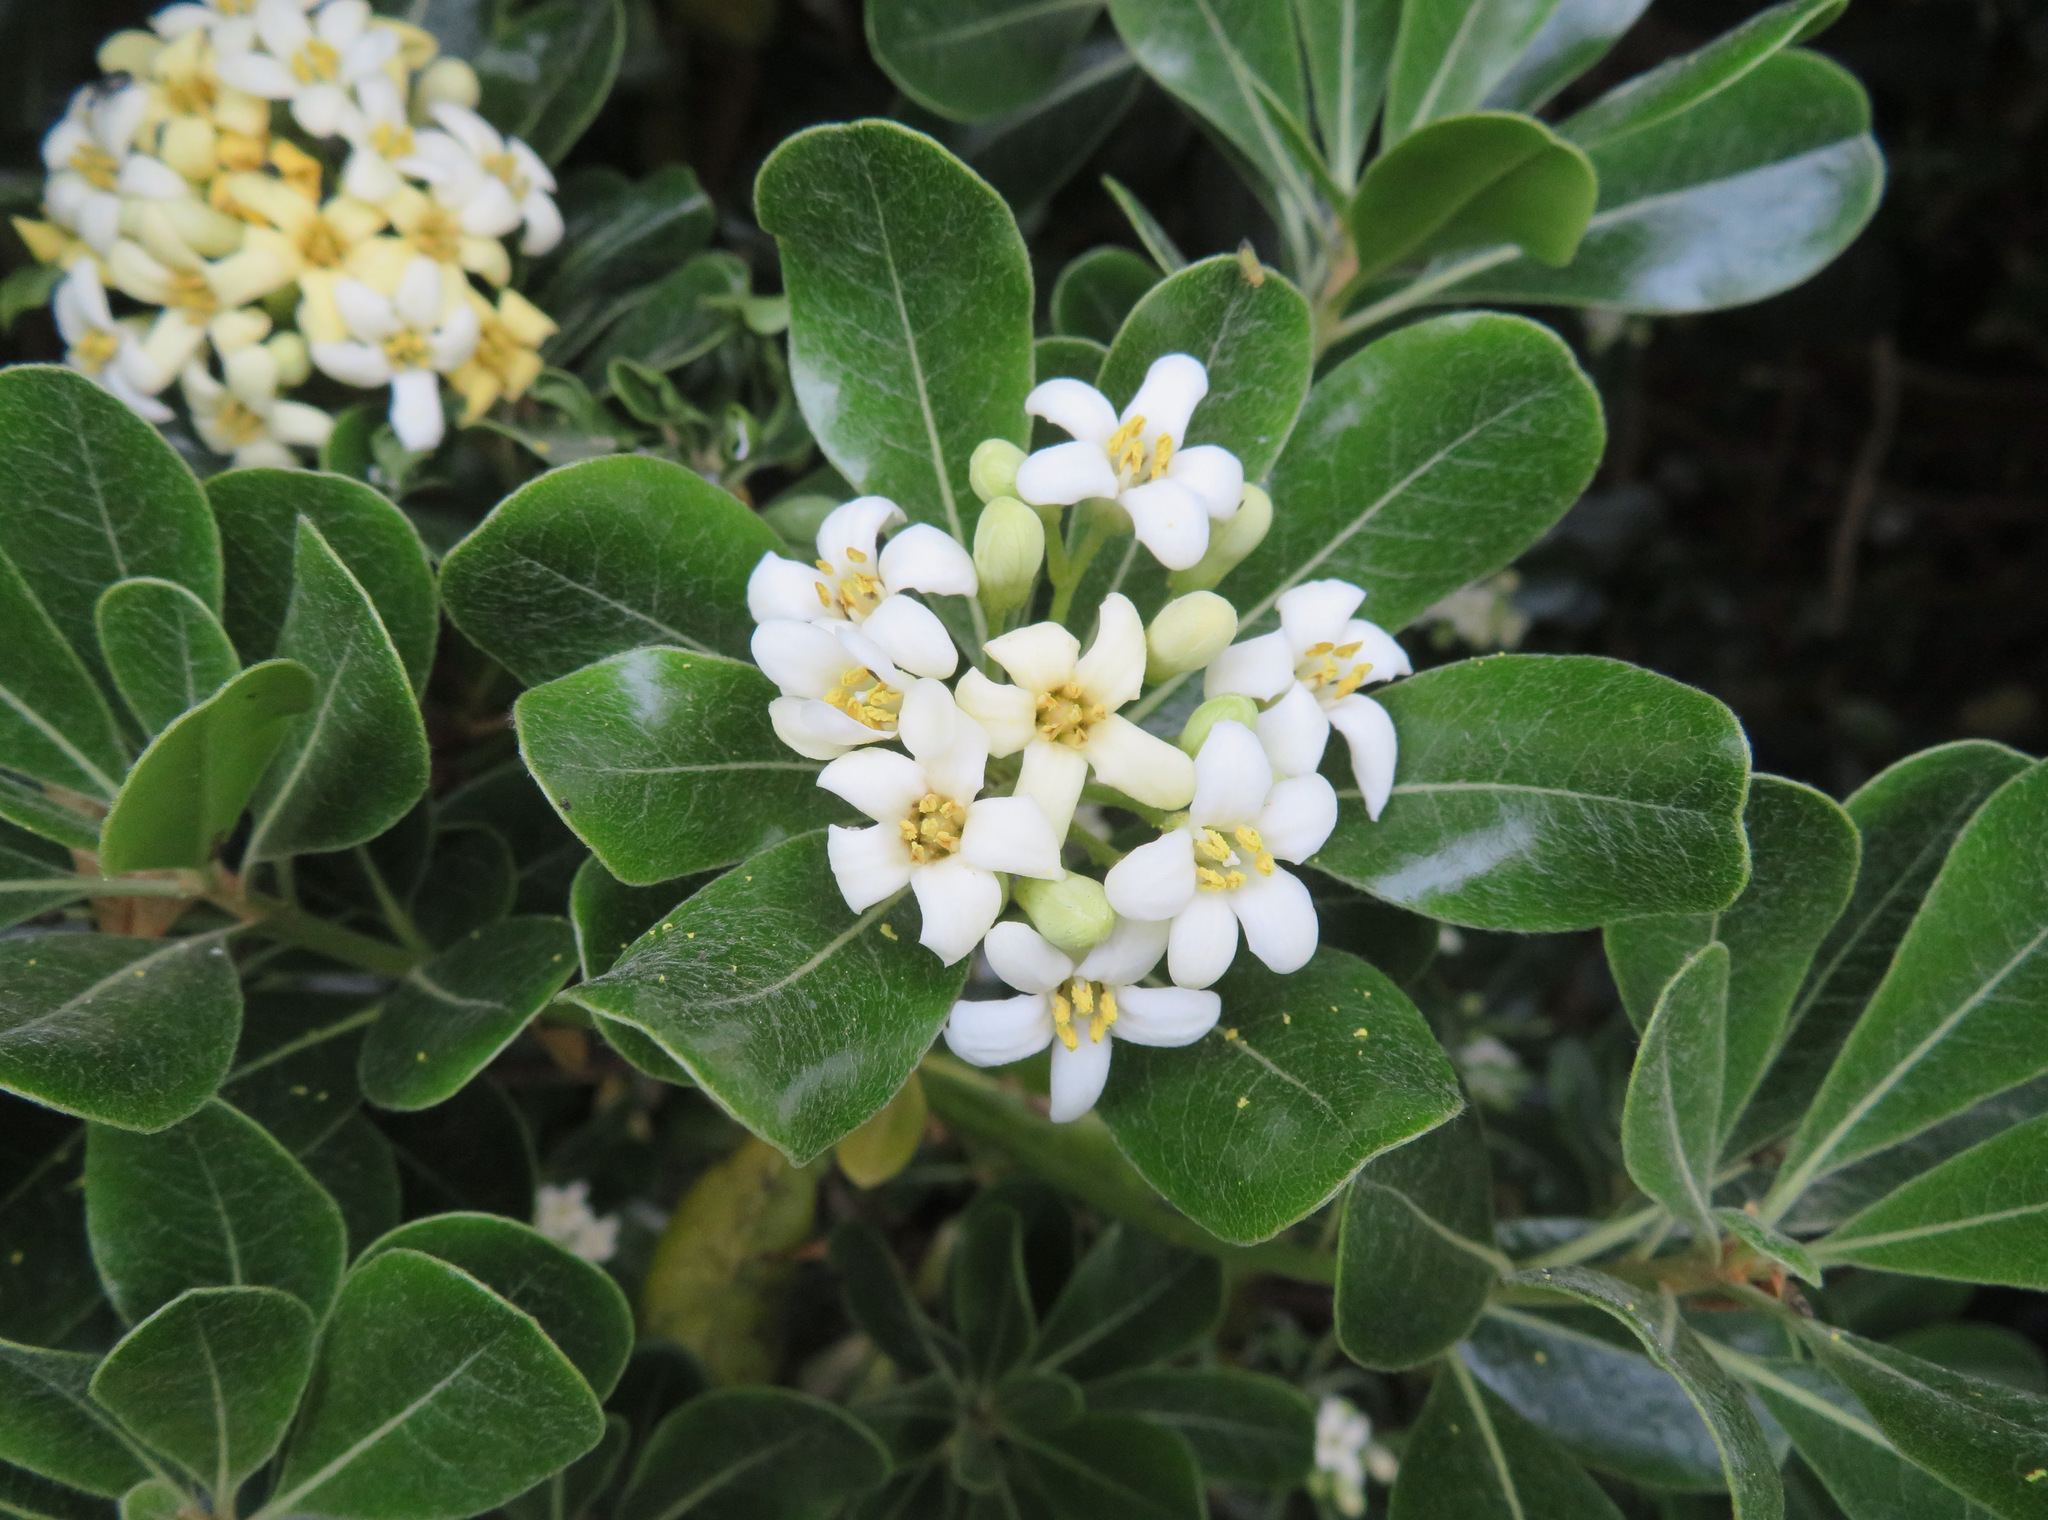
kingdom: Plantae
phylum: Tracheophyta
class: Magnoliopsida
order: Apiales
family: Pittosporaceae
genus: Pittosporum
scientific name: Pittosporum tobira
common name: Japanese cheesewood
